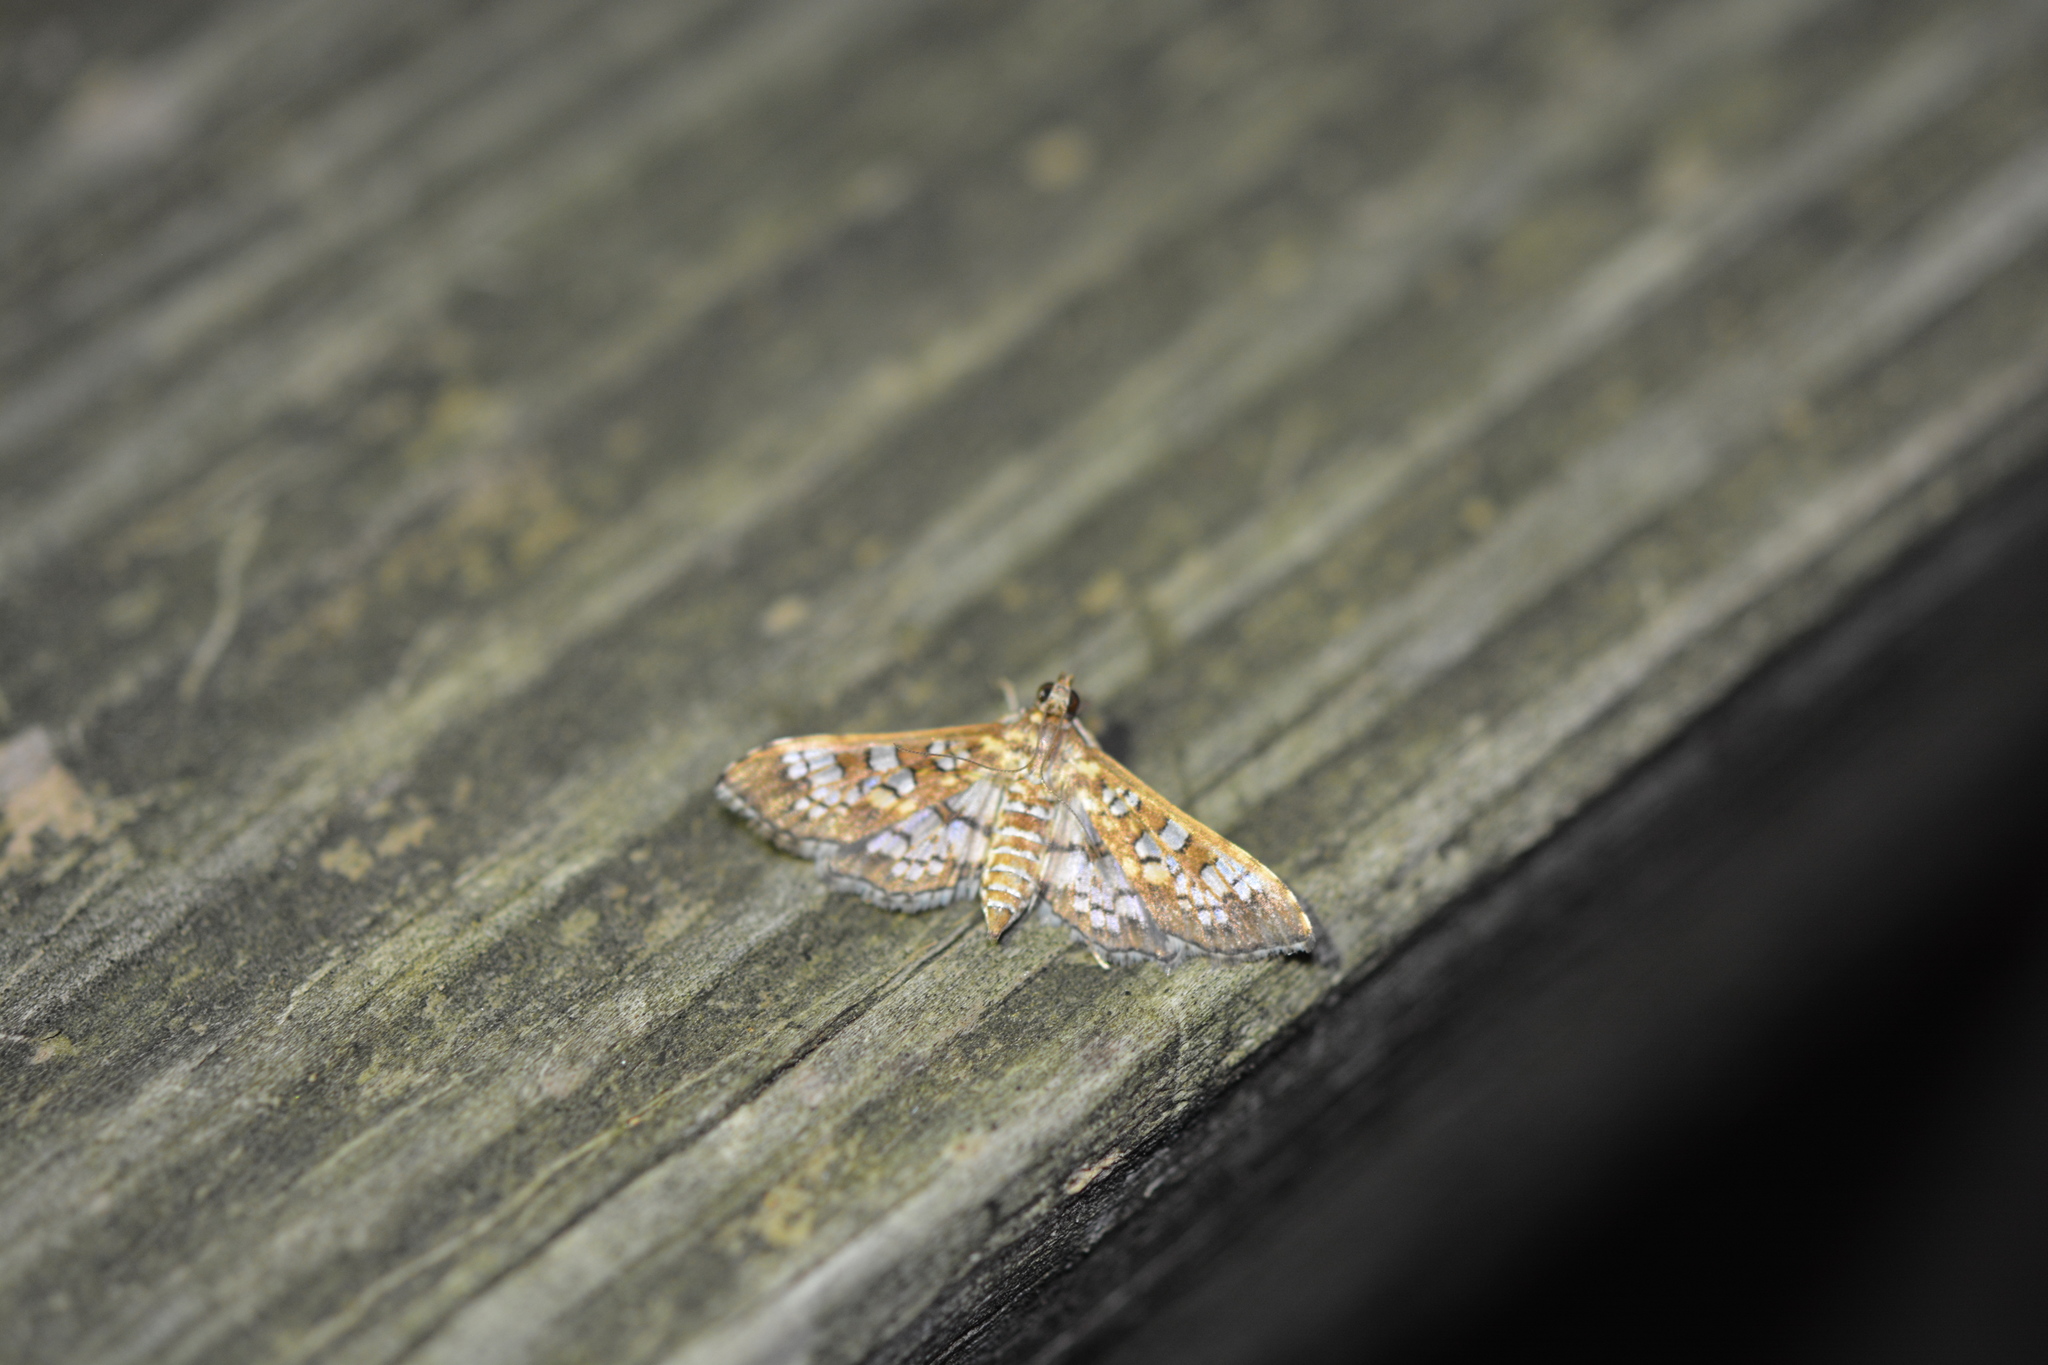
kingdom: Animalia
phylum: Arthropoda
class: Insecta
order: Lepidoptera
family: Crambidae
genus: Samea
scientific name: Samea ecclesialis
